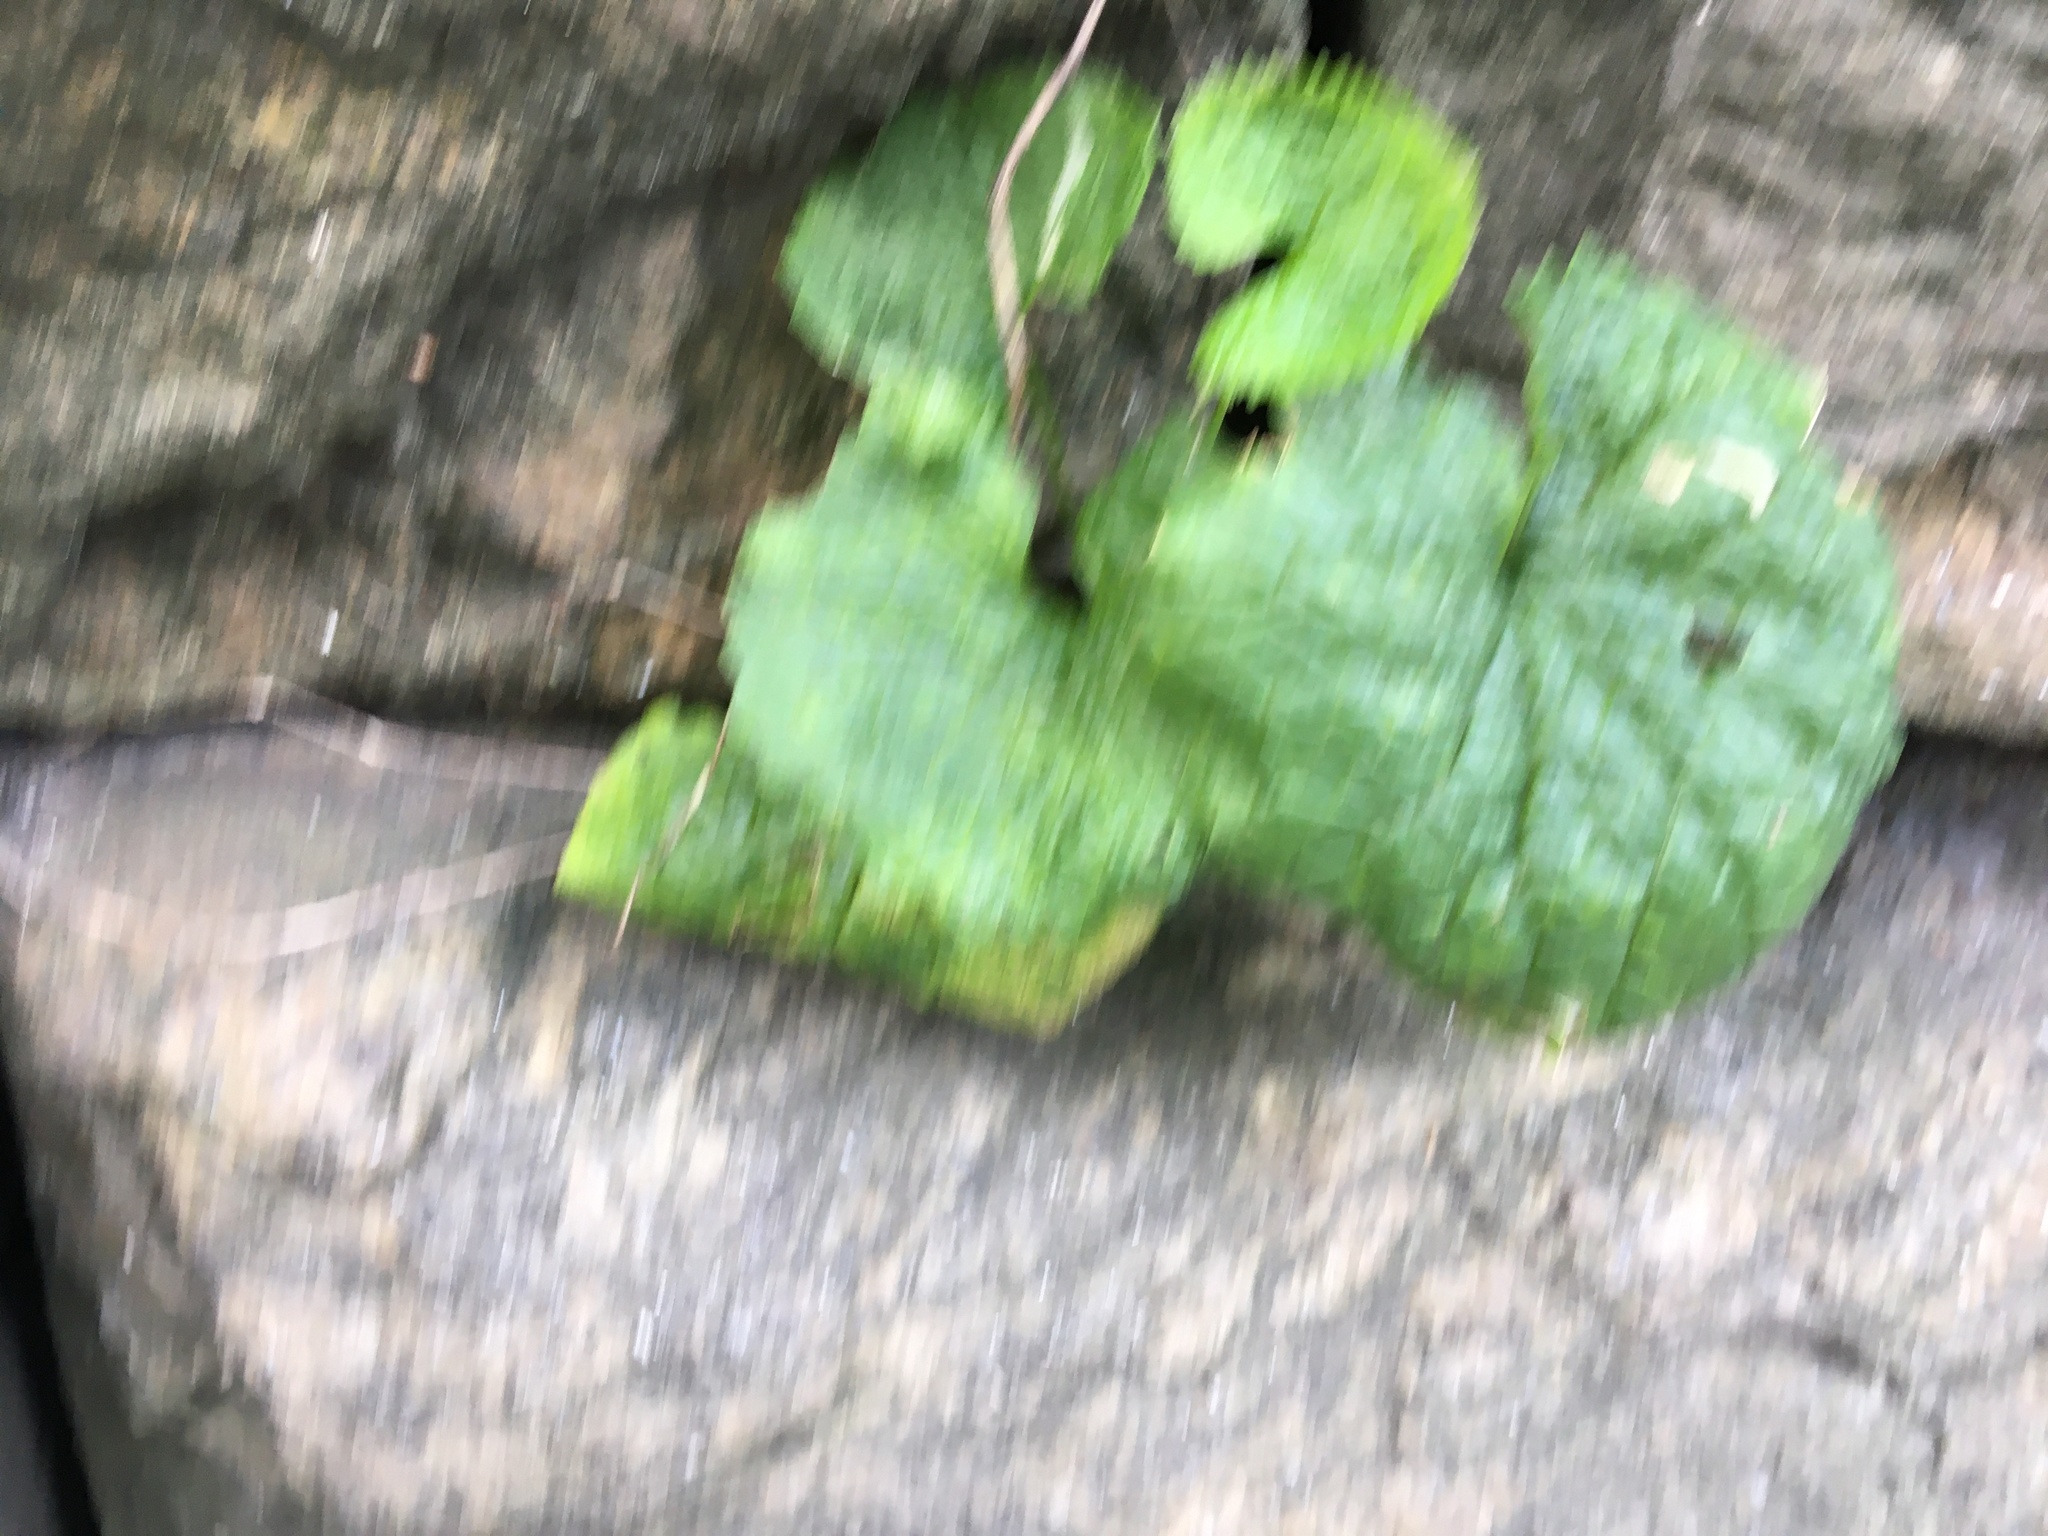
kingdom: Plantae
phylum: Tracheophyta
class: Magnoliopsida
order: Brassicales
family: Brassicaceae
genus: Alliaria
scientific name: Alliaria petiolata
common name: Garlic mustard
